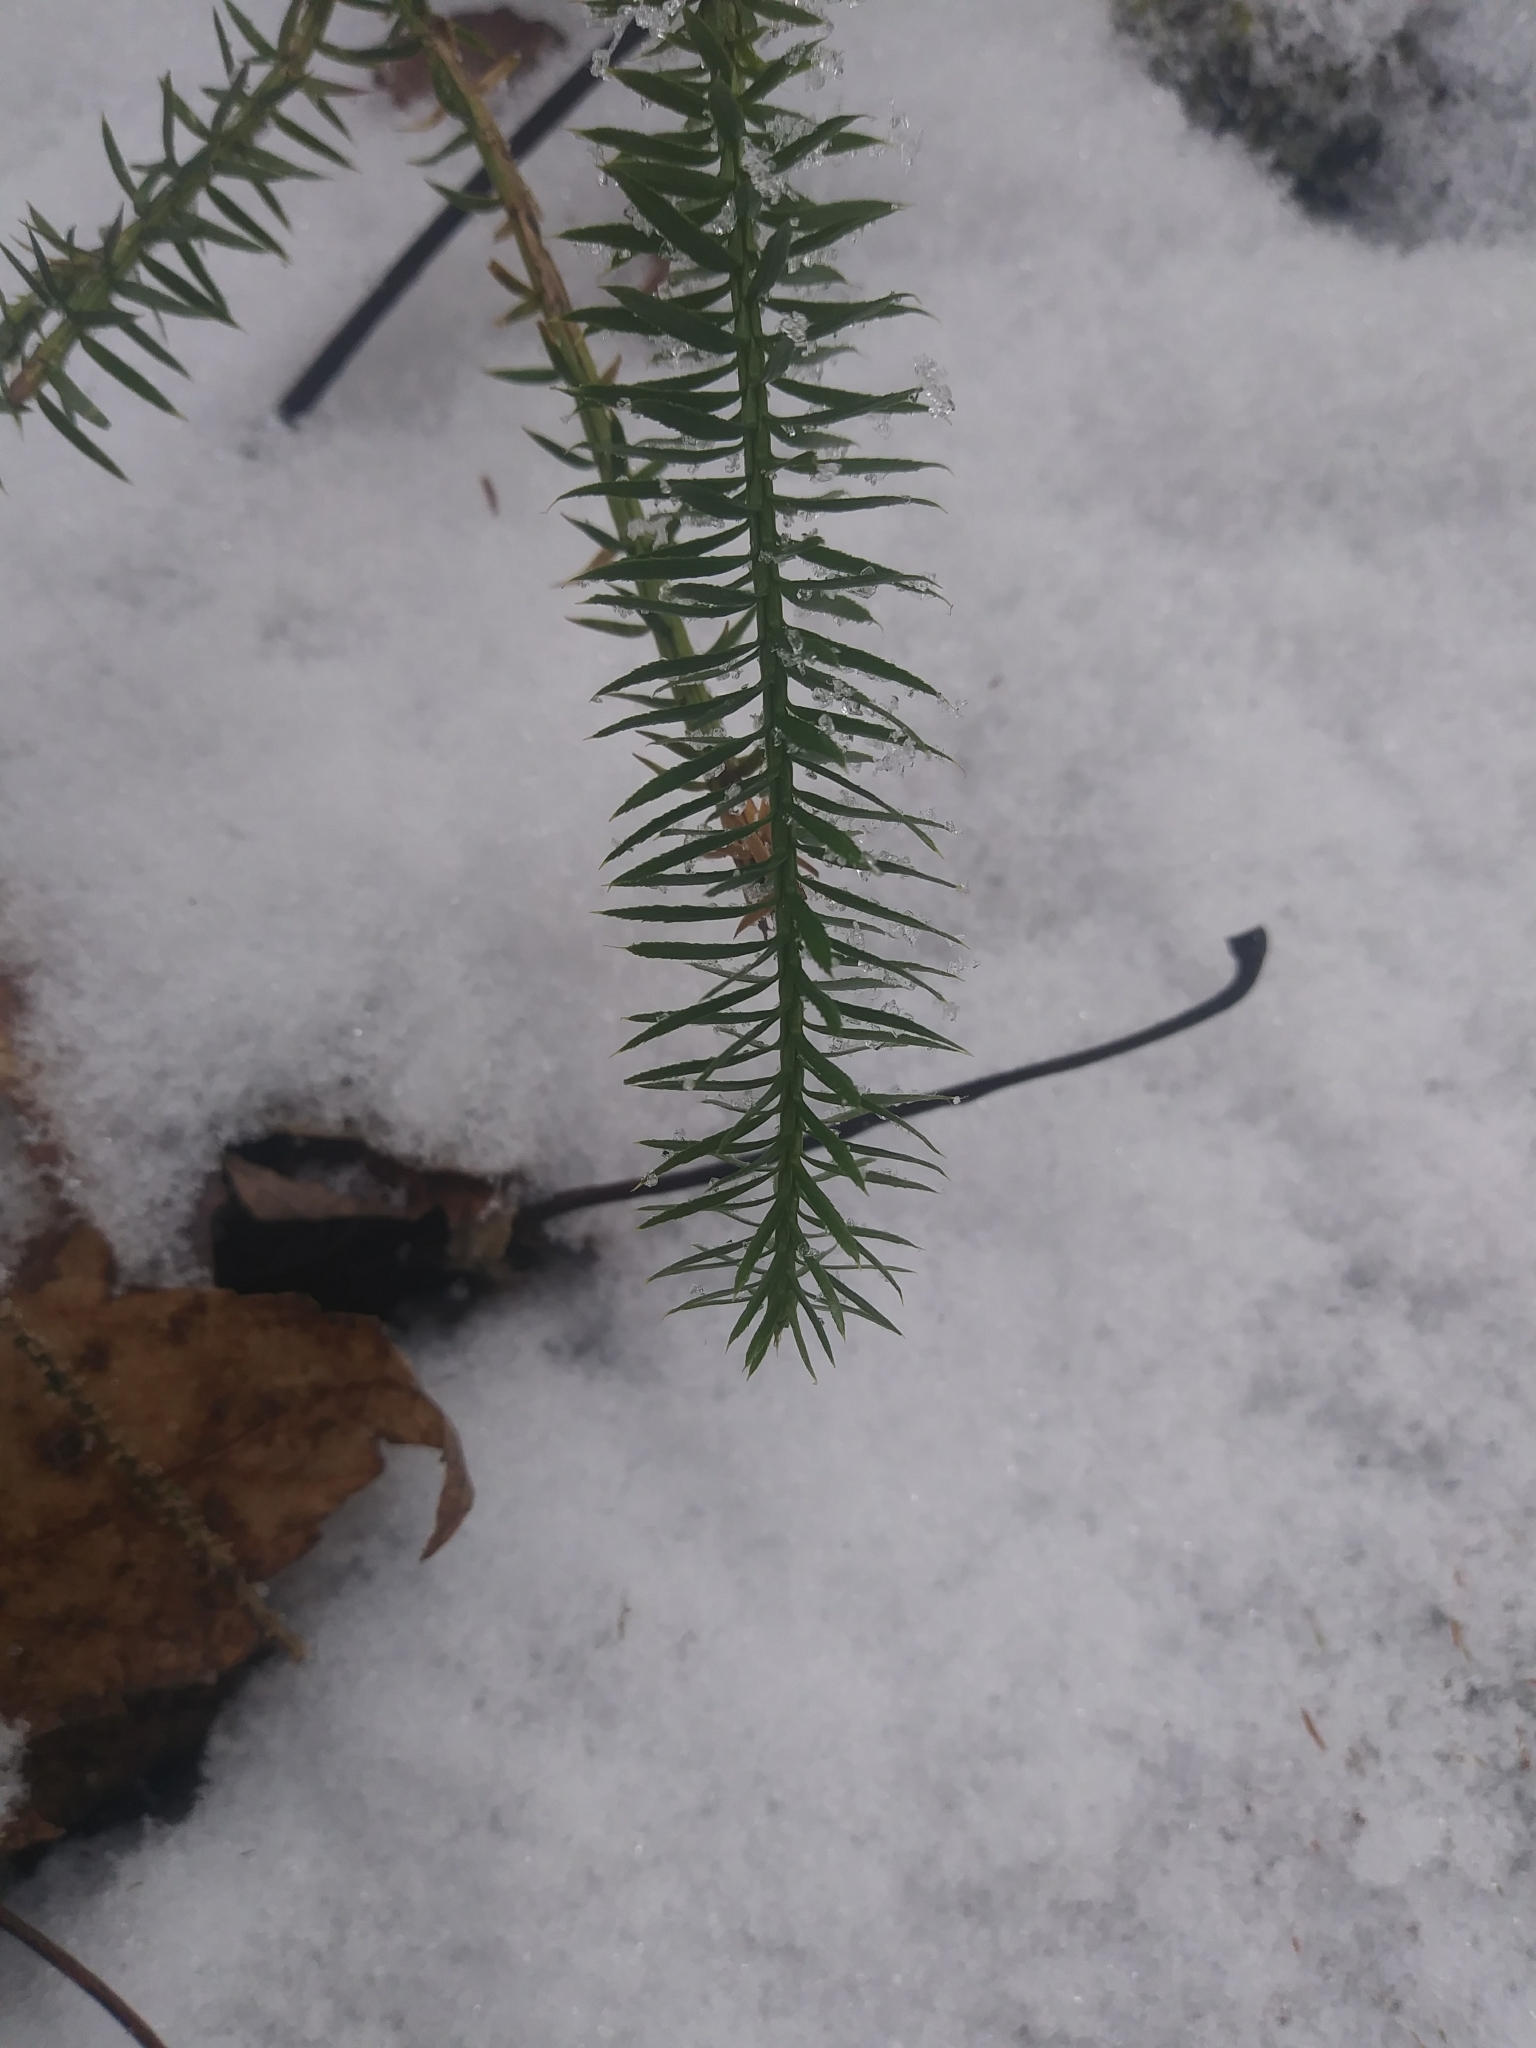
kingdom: Plantae
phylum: Tracheophyta
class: Lycopodiopsida
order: Lycopodiales
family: Lycopodiaceae
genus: Spinulum
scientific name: Spinulum annotinum
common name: Interrupted club-moss
